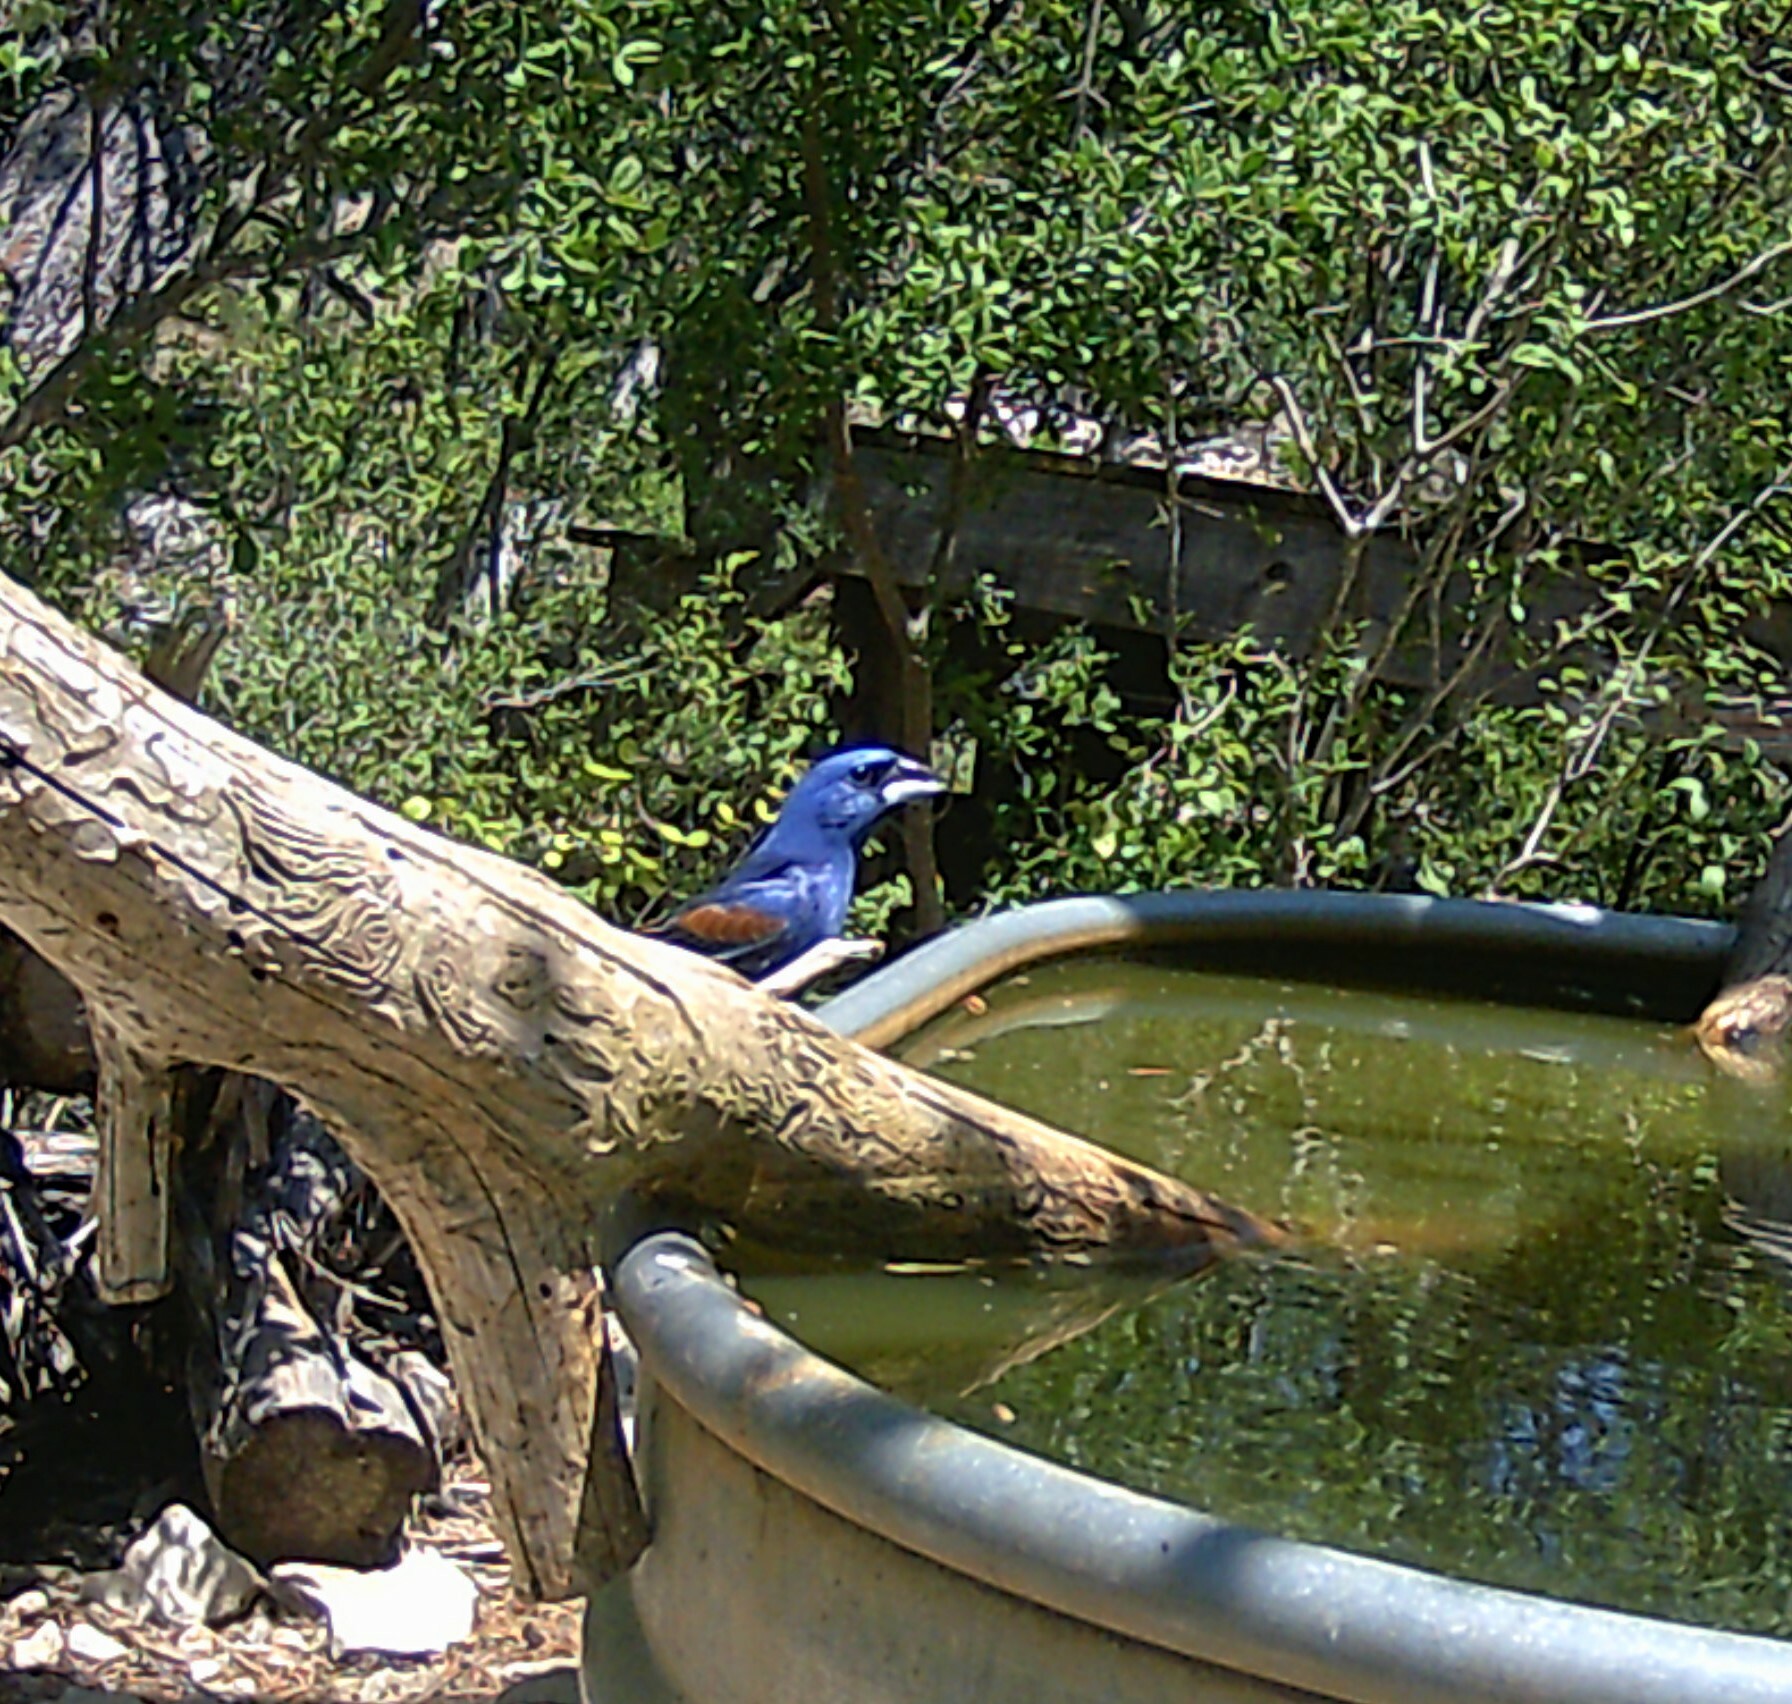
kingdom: Animalia
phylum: Chordata
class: Aves
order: Passeriformes
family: Cardinalidae
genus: Passerina
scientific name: Passerina caerulea
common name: Blue grosbeak
